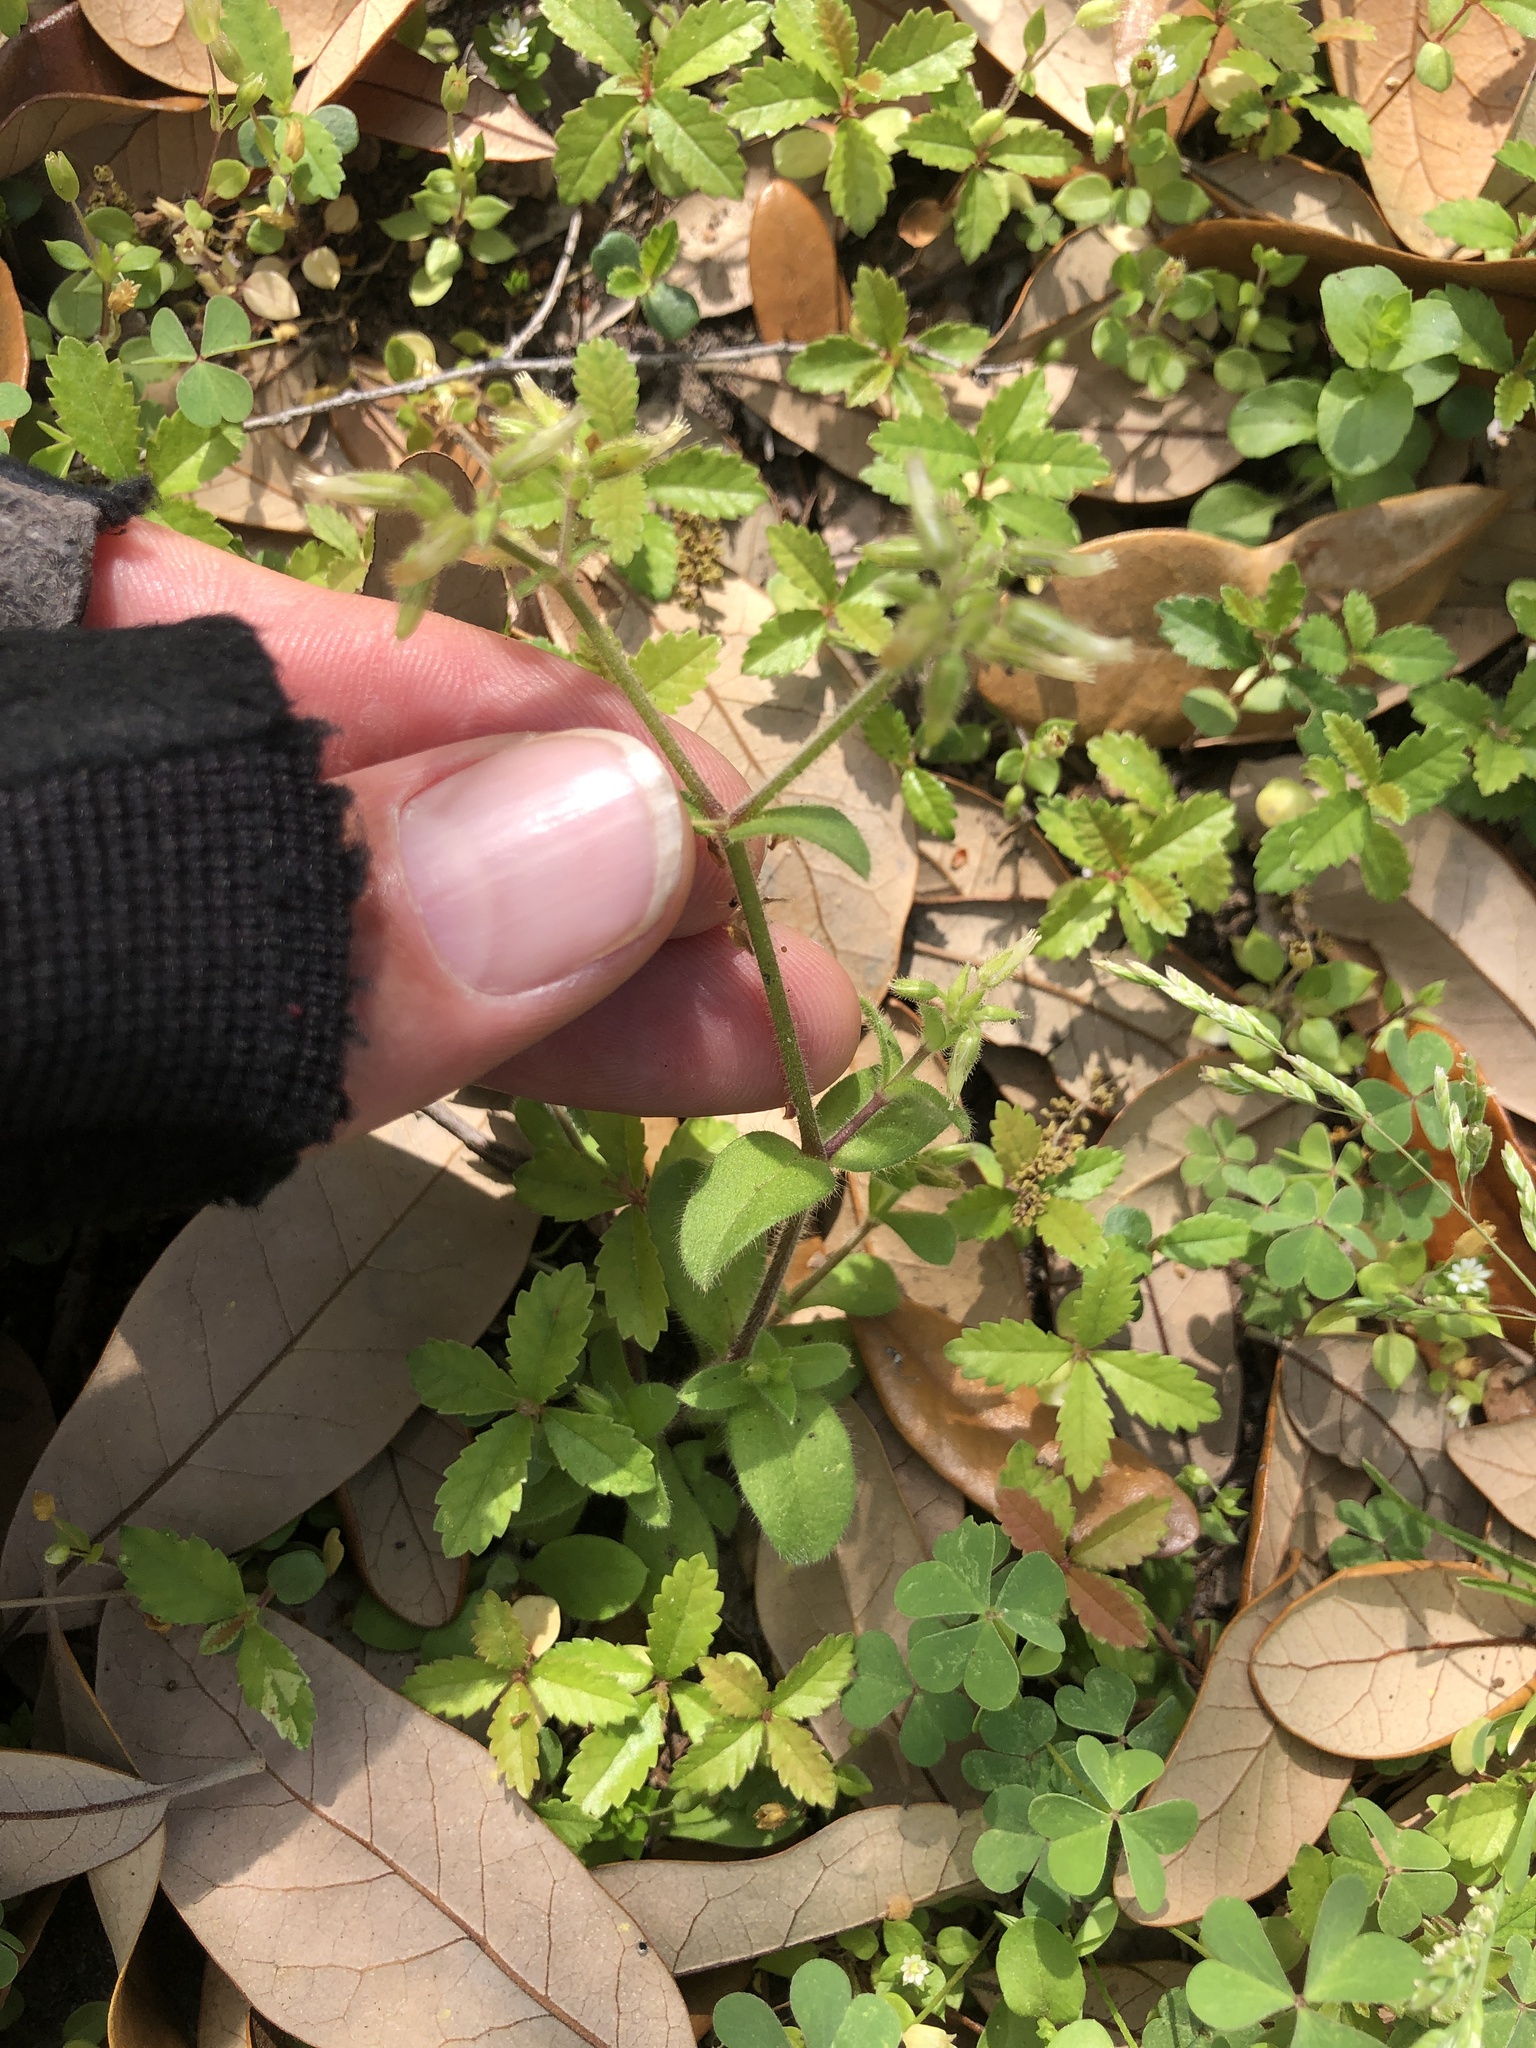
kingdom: Plantae
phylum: Tracheophyta
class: Magnoliopsida
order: Caryophyllales
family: Caryophyllaceae
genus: Cerastium
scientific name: Cerastium glomeratum
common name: Sticky chickweed
